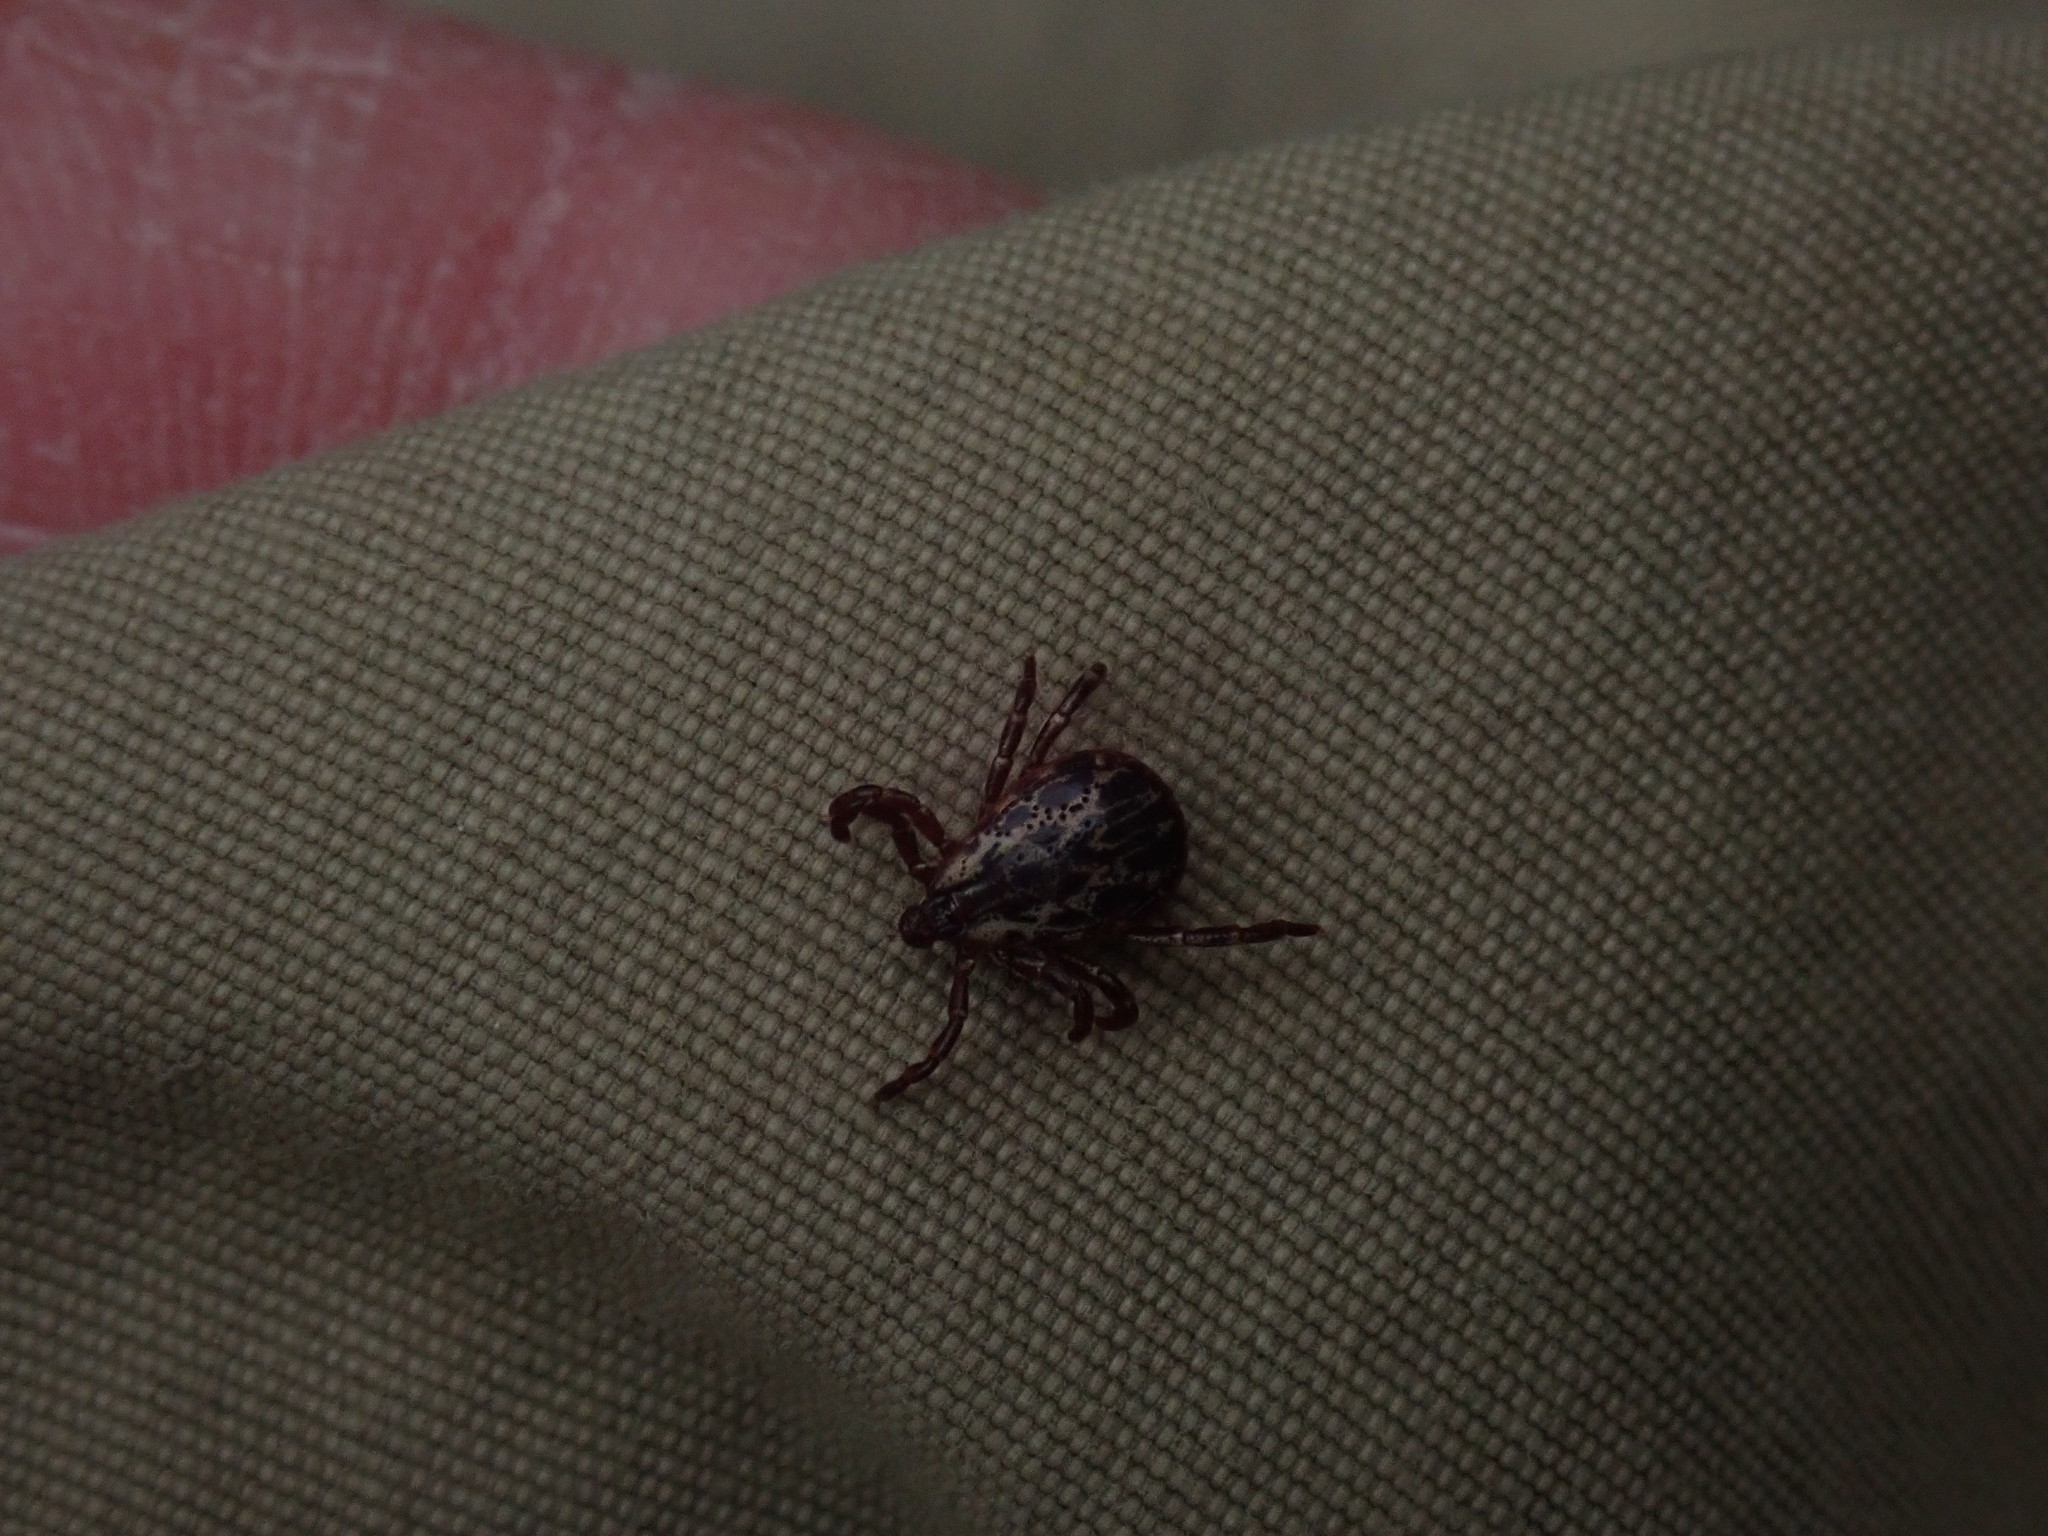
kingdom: Animalia
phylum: Arthropoda
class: Arachnida
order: Ixodida
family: Ixodidae
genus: Dermacentor
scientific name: Dermacentor variabilis
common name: American dog tick
